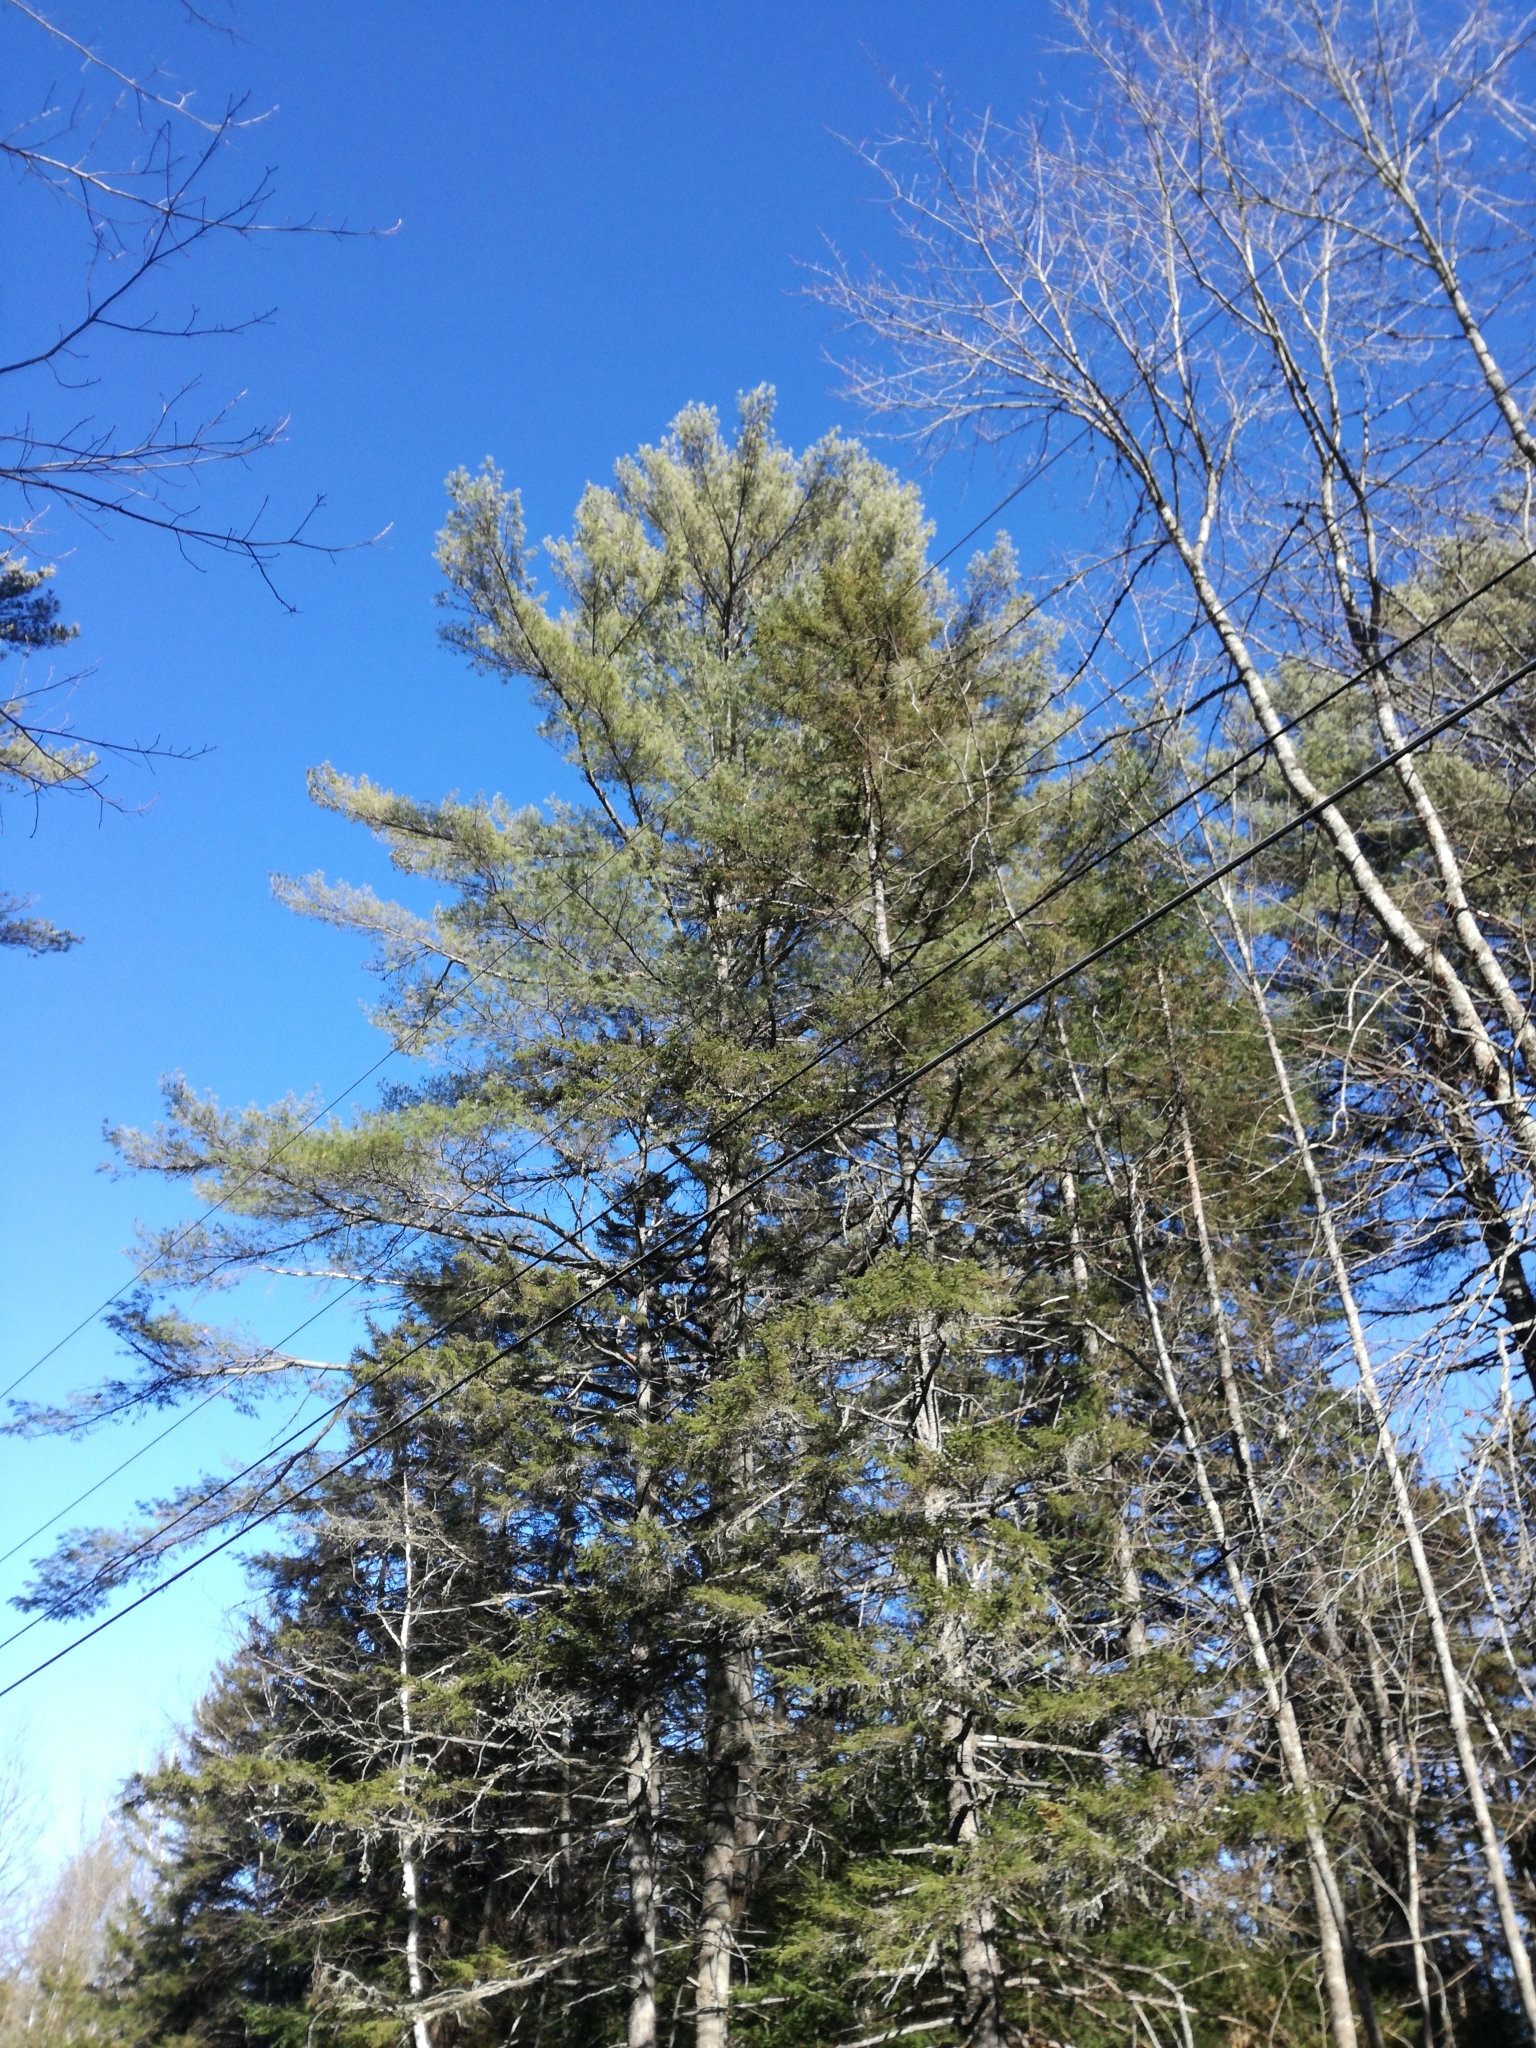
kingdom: Plantae
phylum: Tracheophyta
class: Pinopsida
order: Pinales
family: Pinaceae
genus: Pinus
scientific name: Pinus strobus
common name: Weymouth pine
